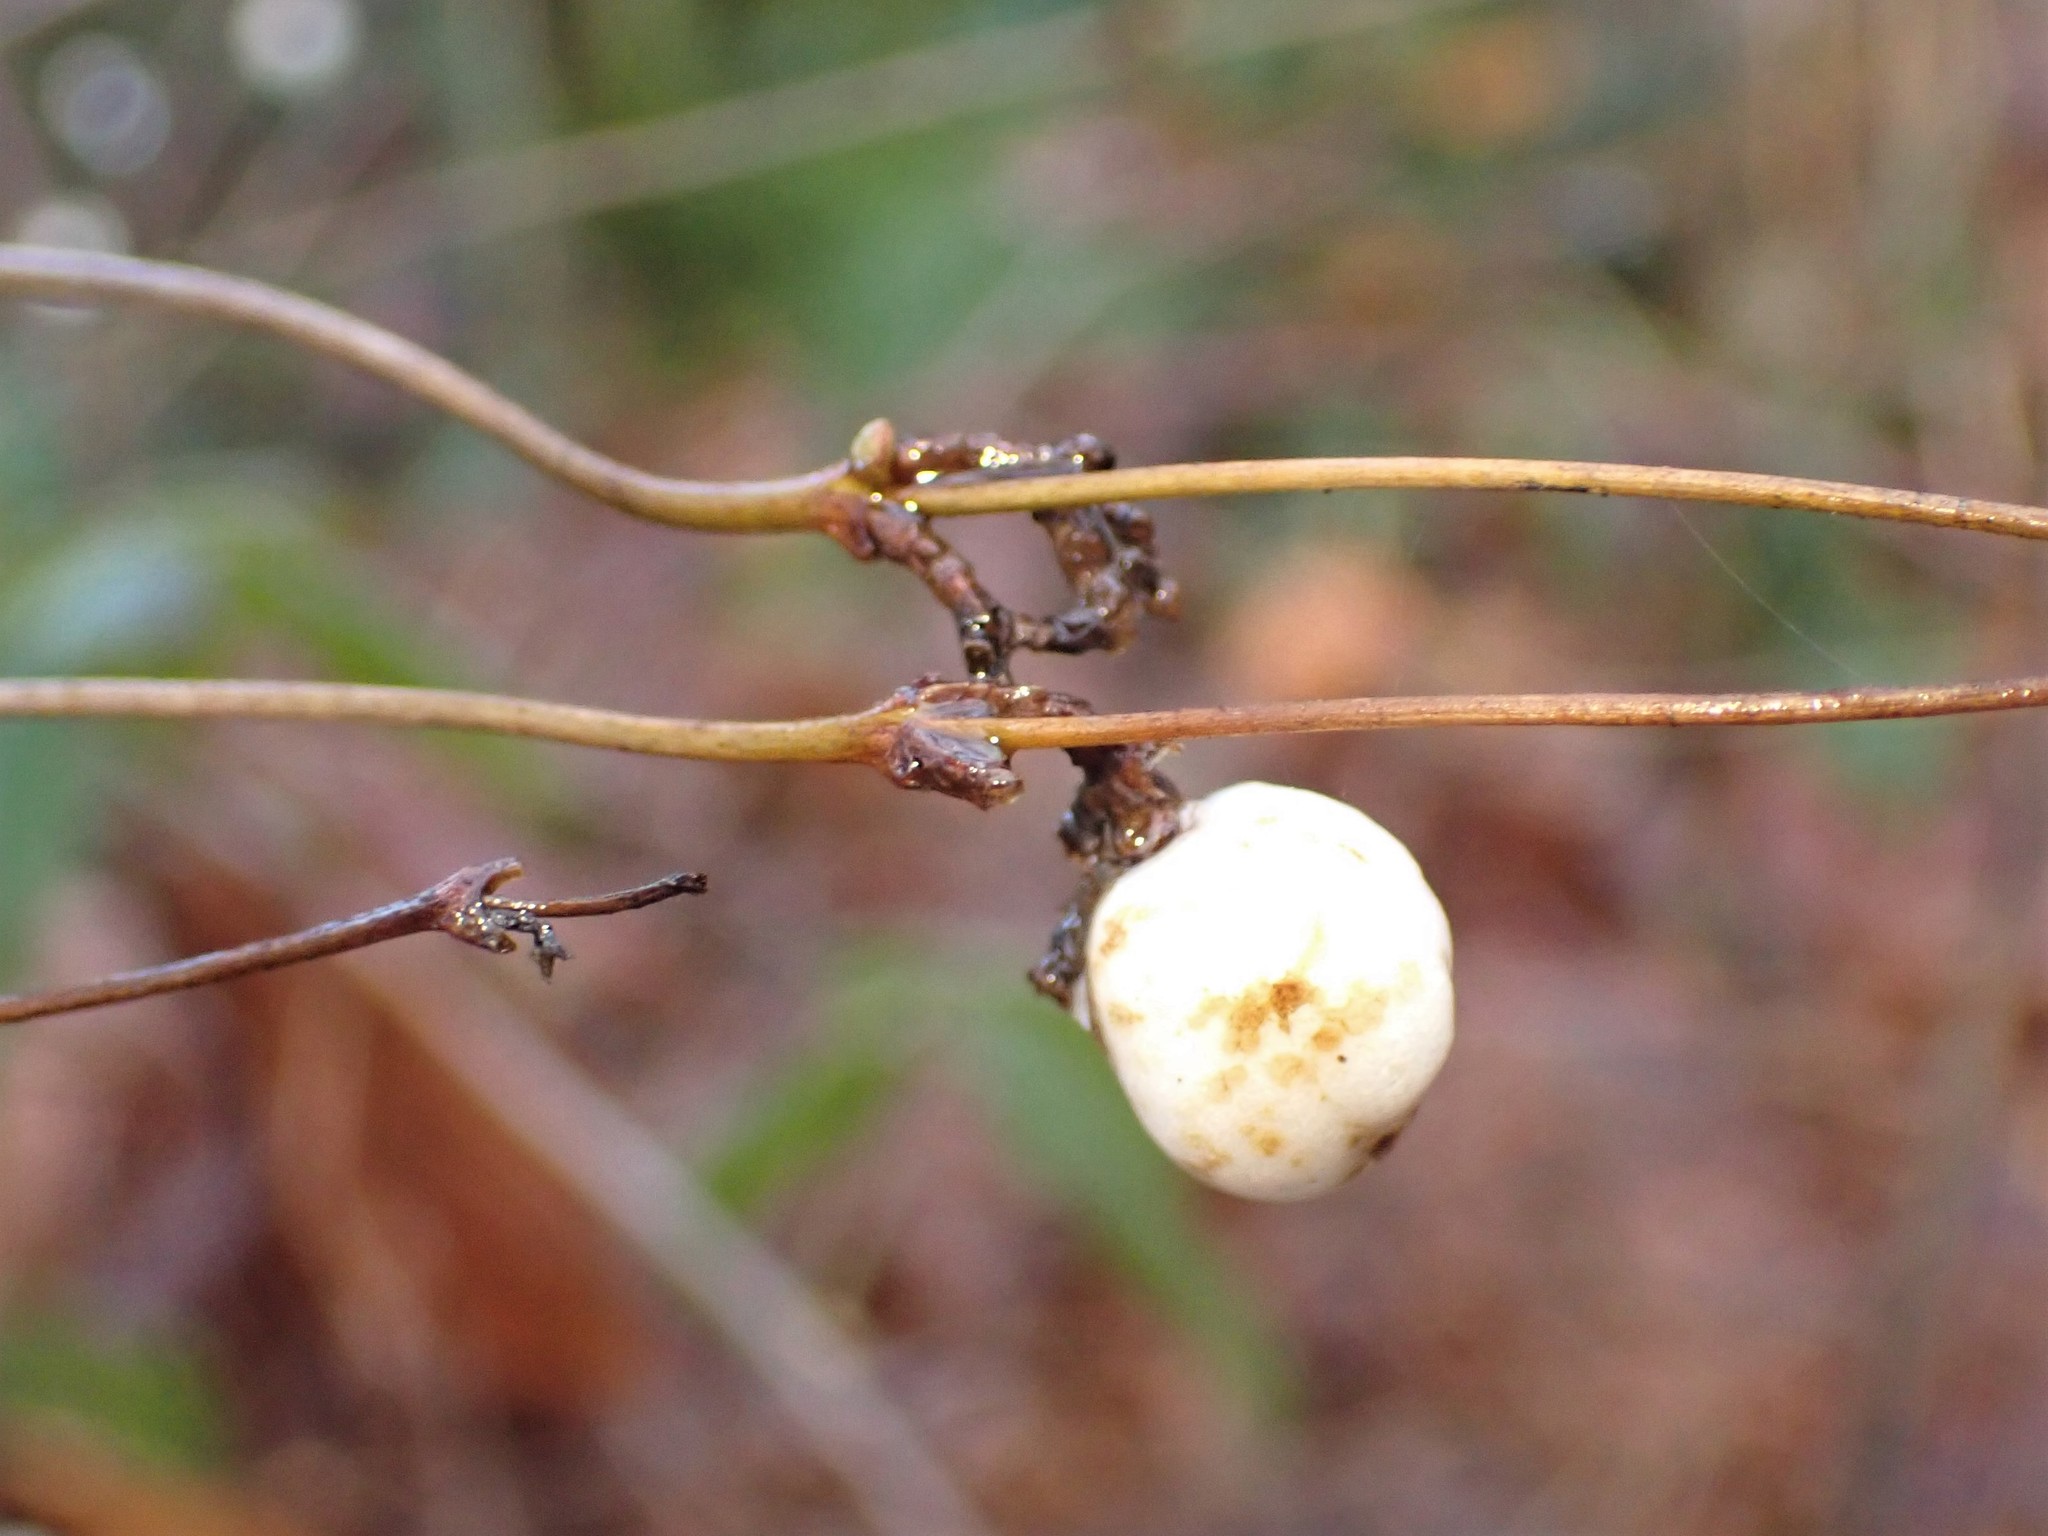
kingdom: Plantae
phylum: Tracheophyta
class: Magnoliopsida
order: Dipsacales
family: Caprifoliaceae
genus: Symphoricarpos
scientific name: Symphoricarpos albus
